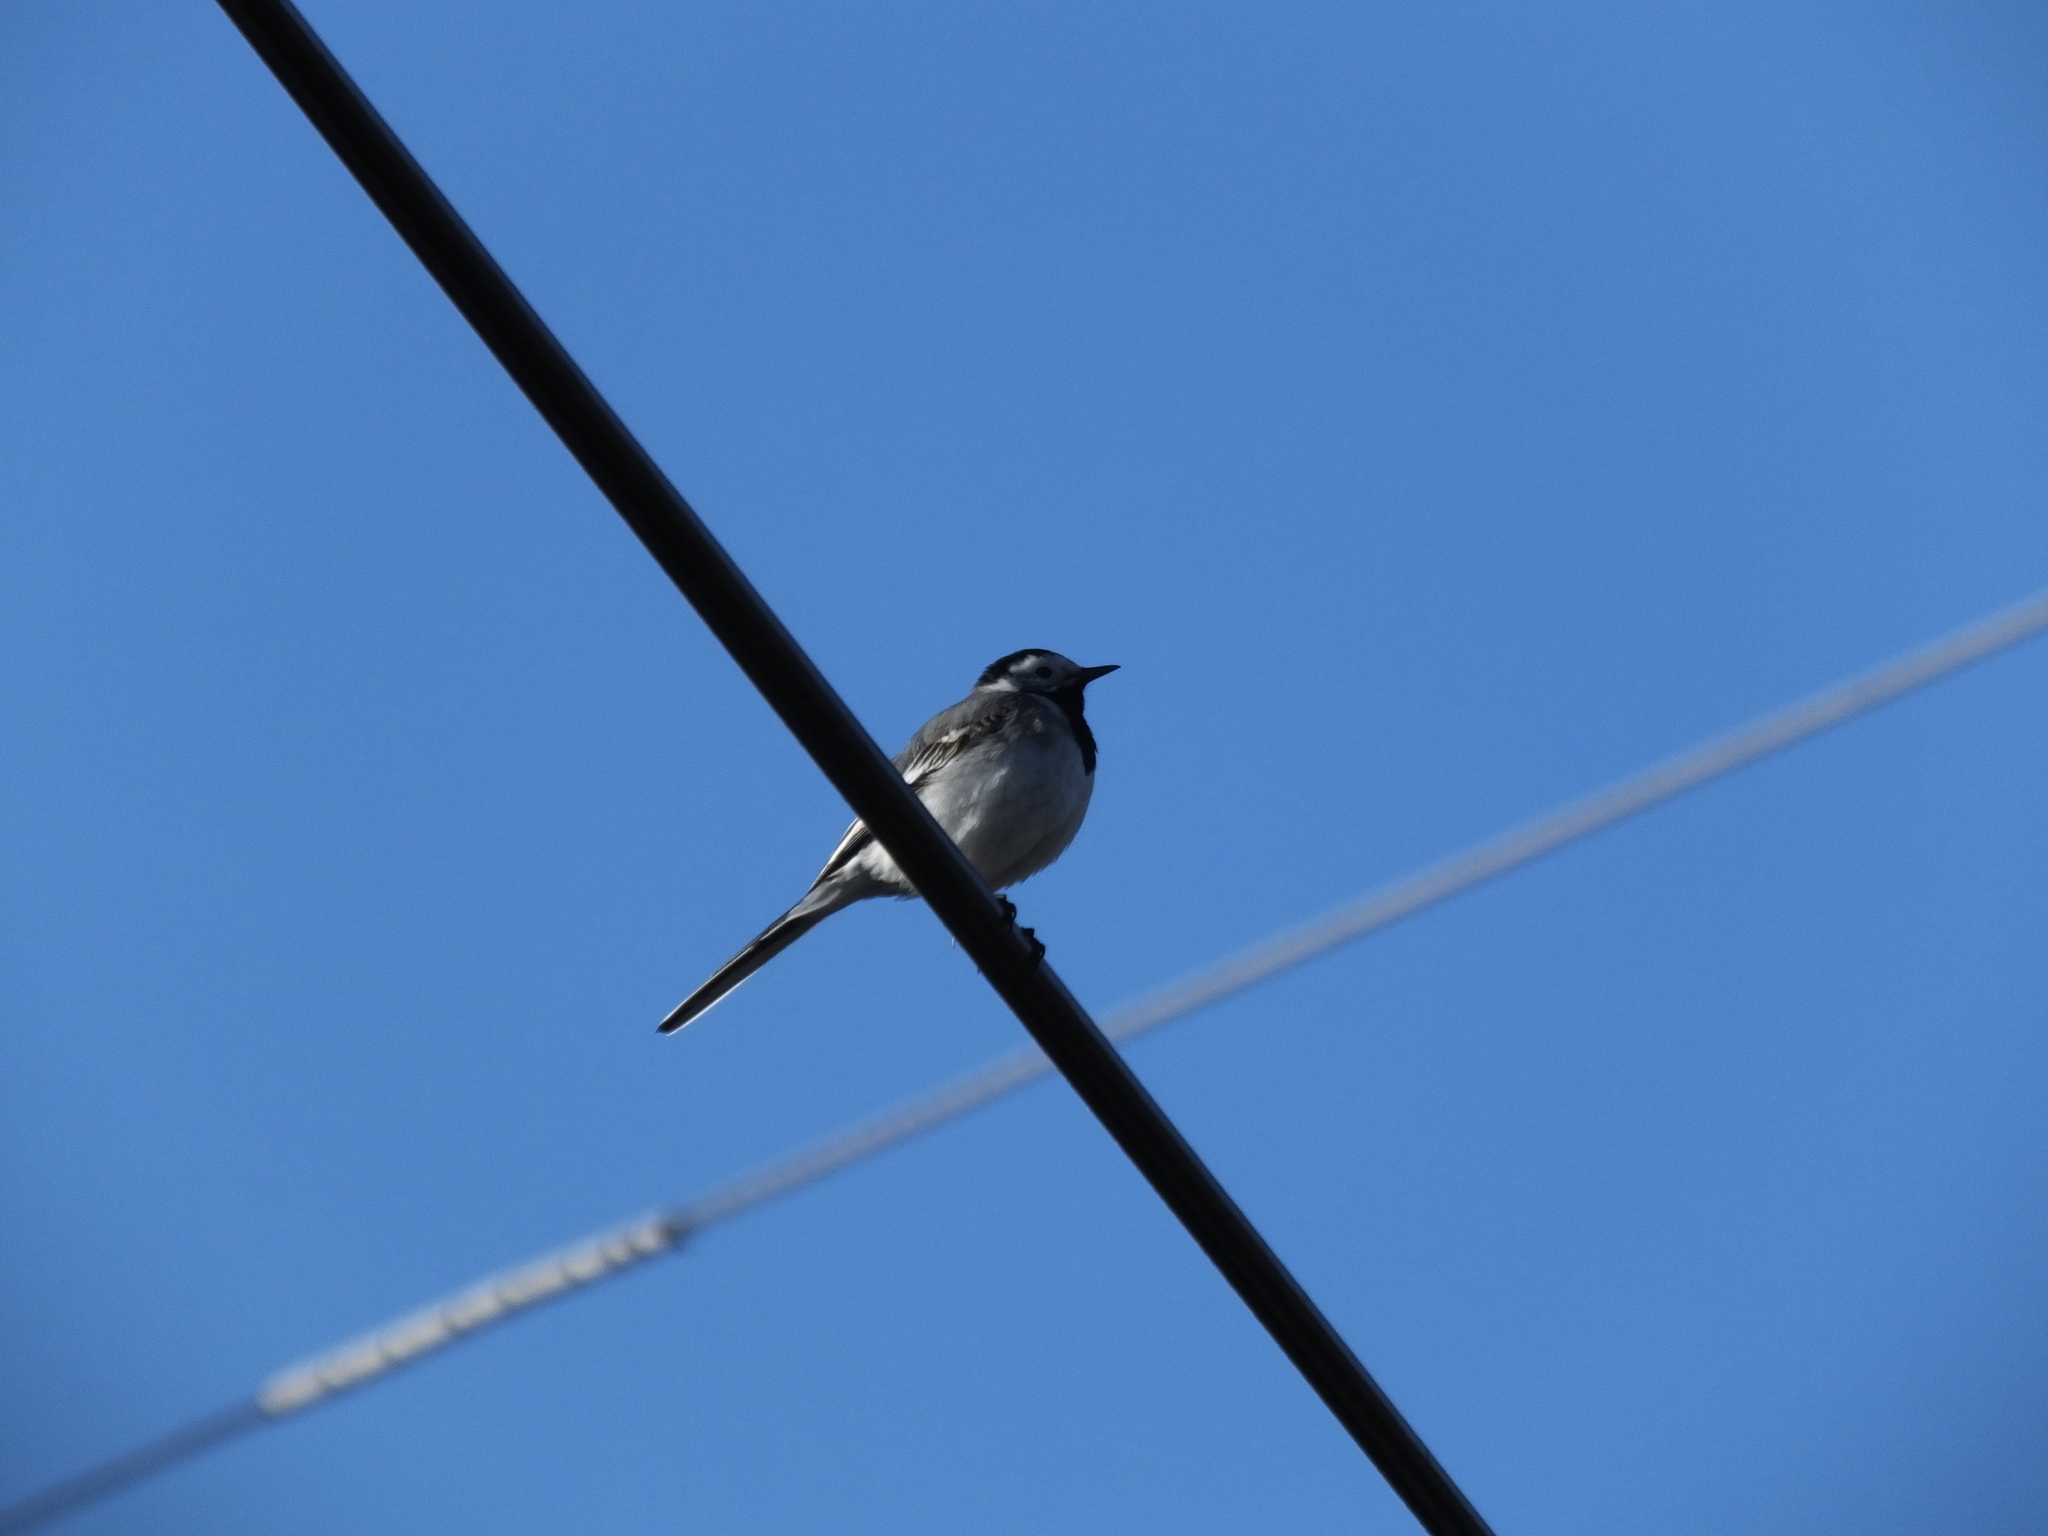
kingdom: Animalia
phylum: Chordata
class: Aves
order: Passeriformes
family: Motacillidae
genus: Motacilla
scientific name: Motacilla alba
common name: White wagtail
